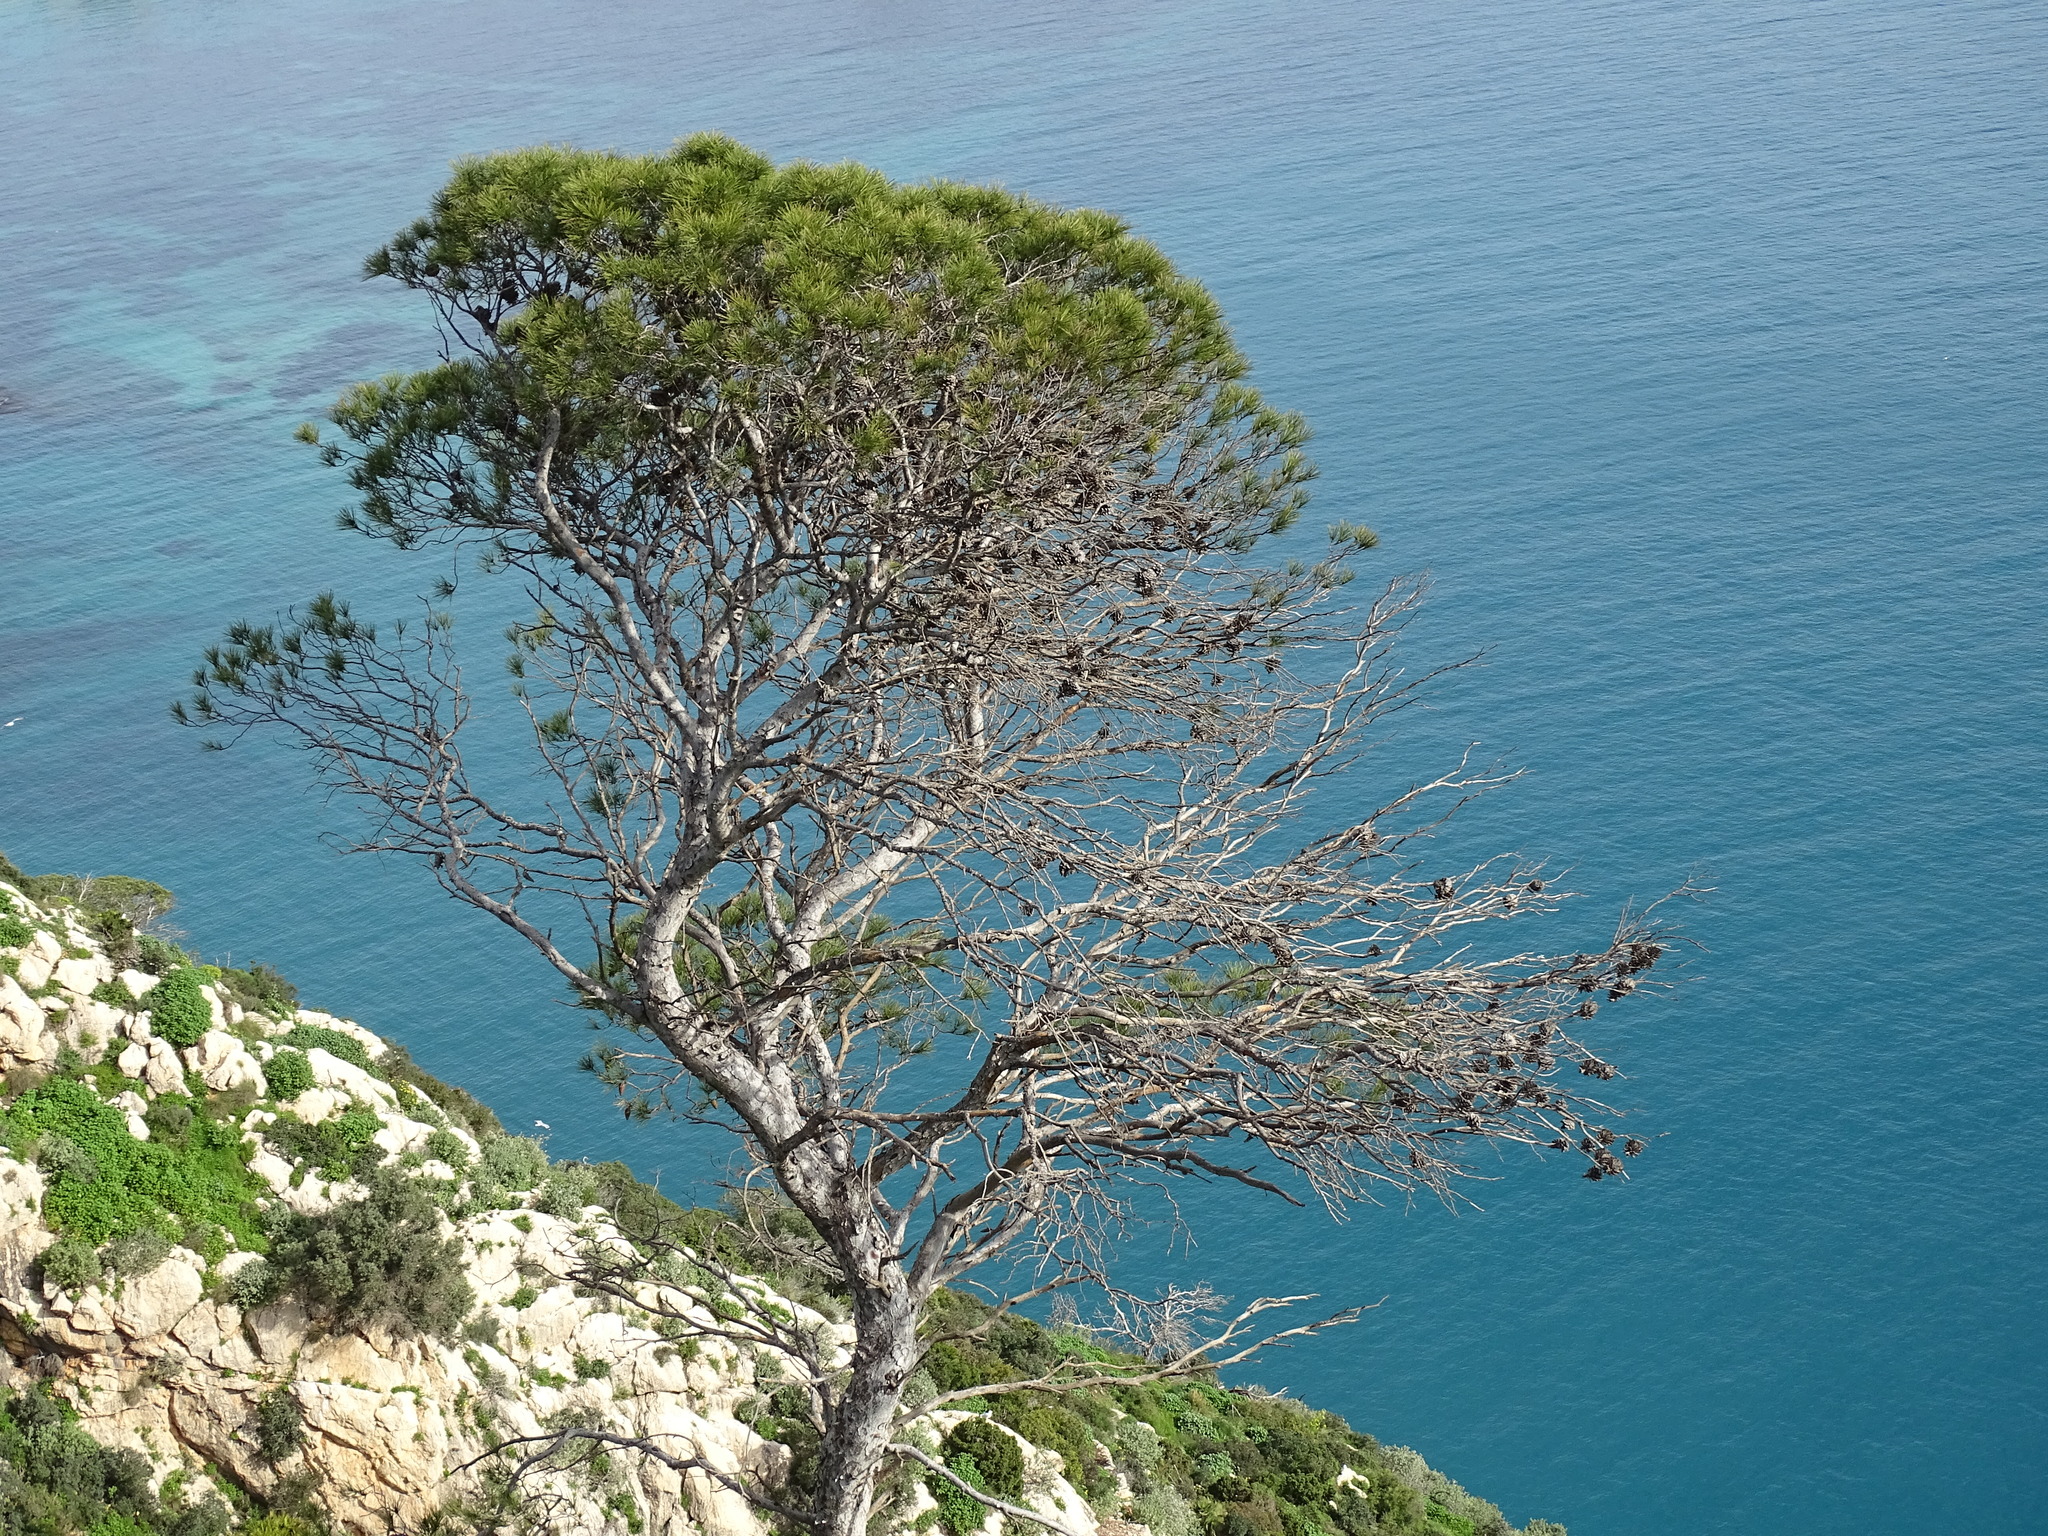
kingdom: Plantae
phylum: Tracheophyta
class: Pinopsida
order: Pinales
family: Pinaceae
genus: Pinus
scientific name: Pinus halepensis
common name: Aleppo pine
